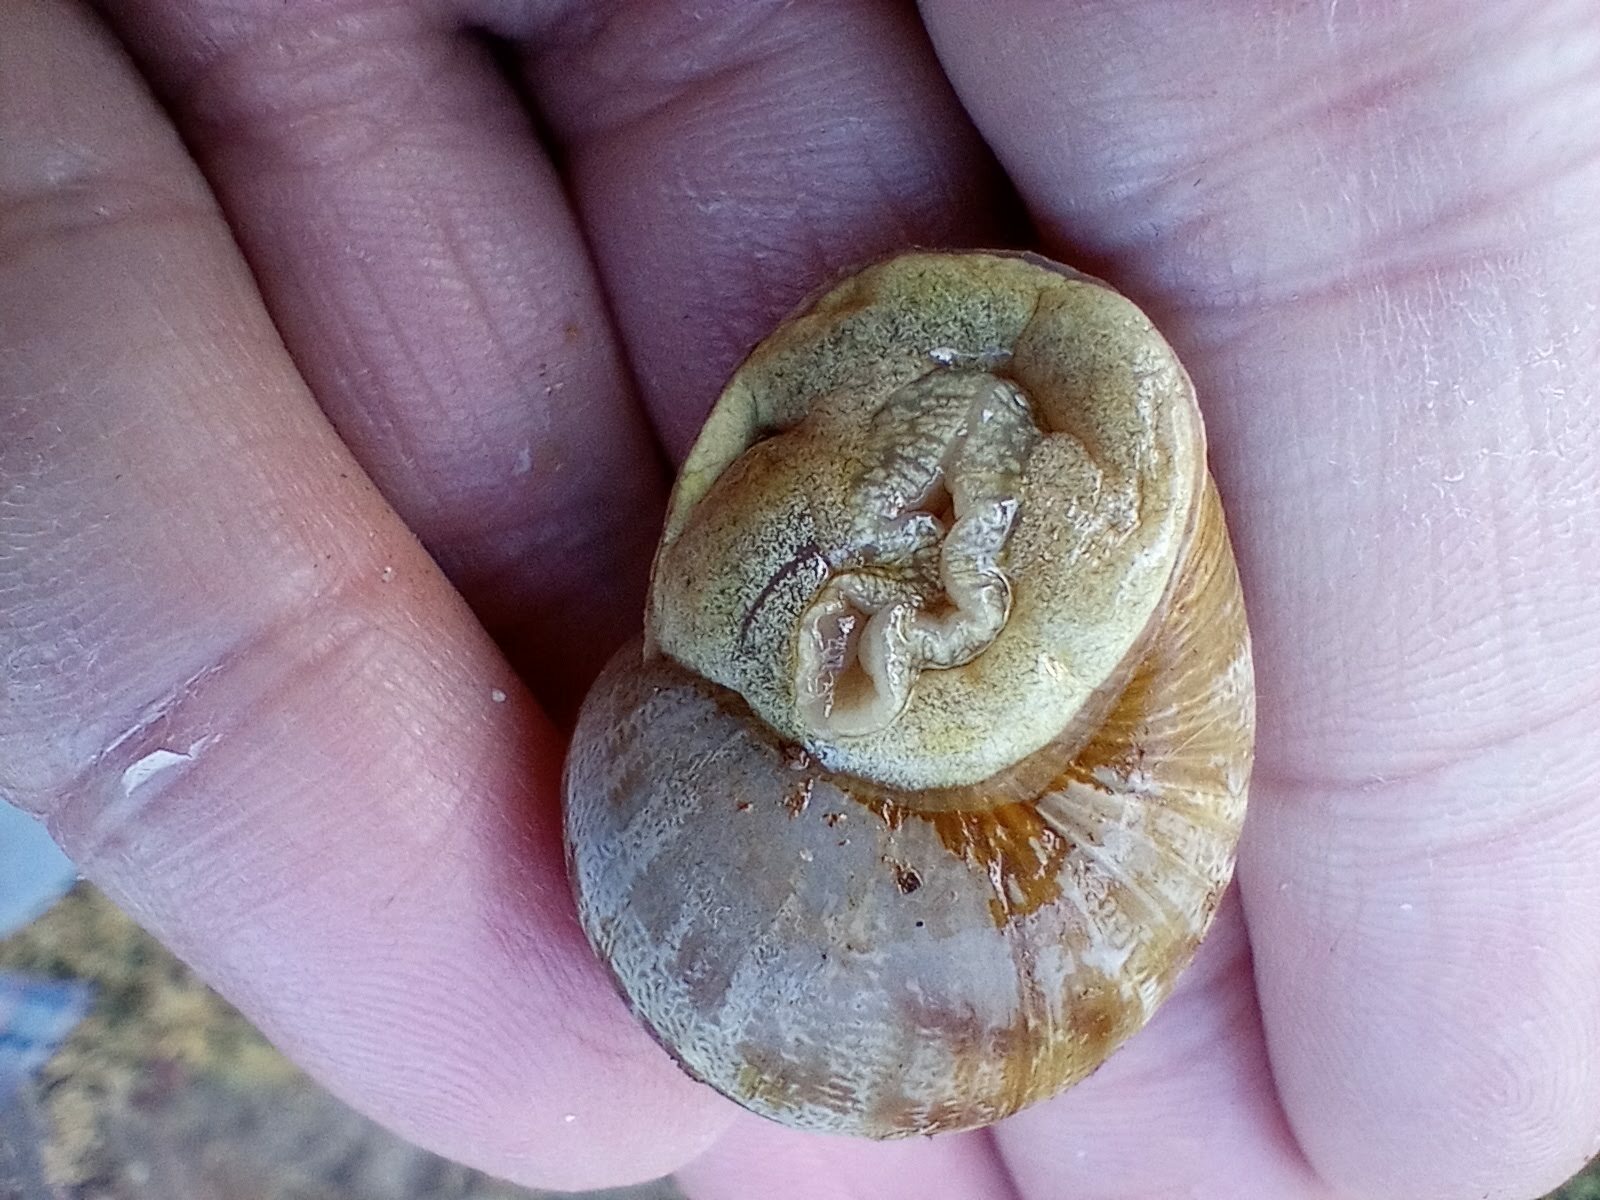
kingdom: Animalia
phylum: Mollusca
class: Gastropoda
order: Stylommatophora
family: Helicidae
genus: Cornu
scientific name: Cornu aspersum
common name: Brown garden snail
